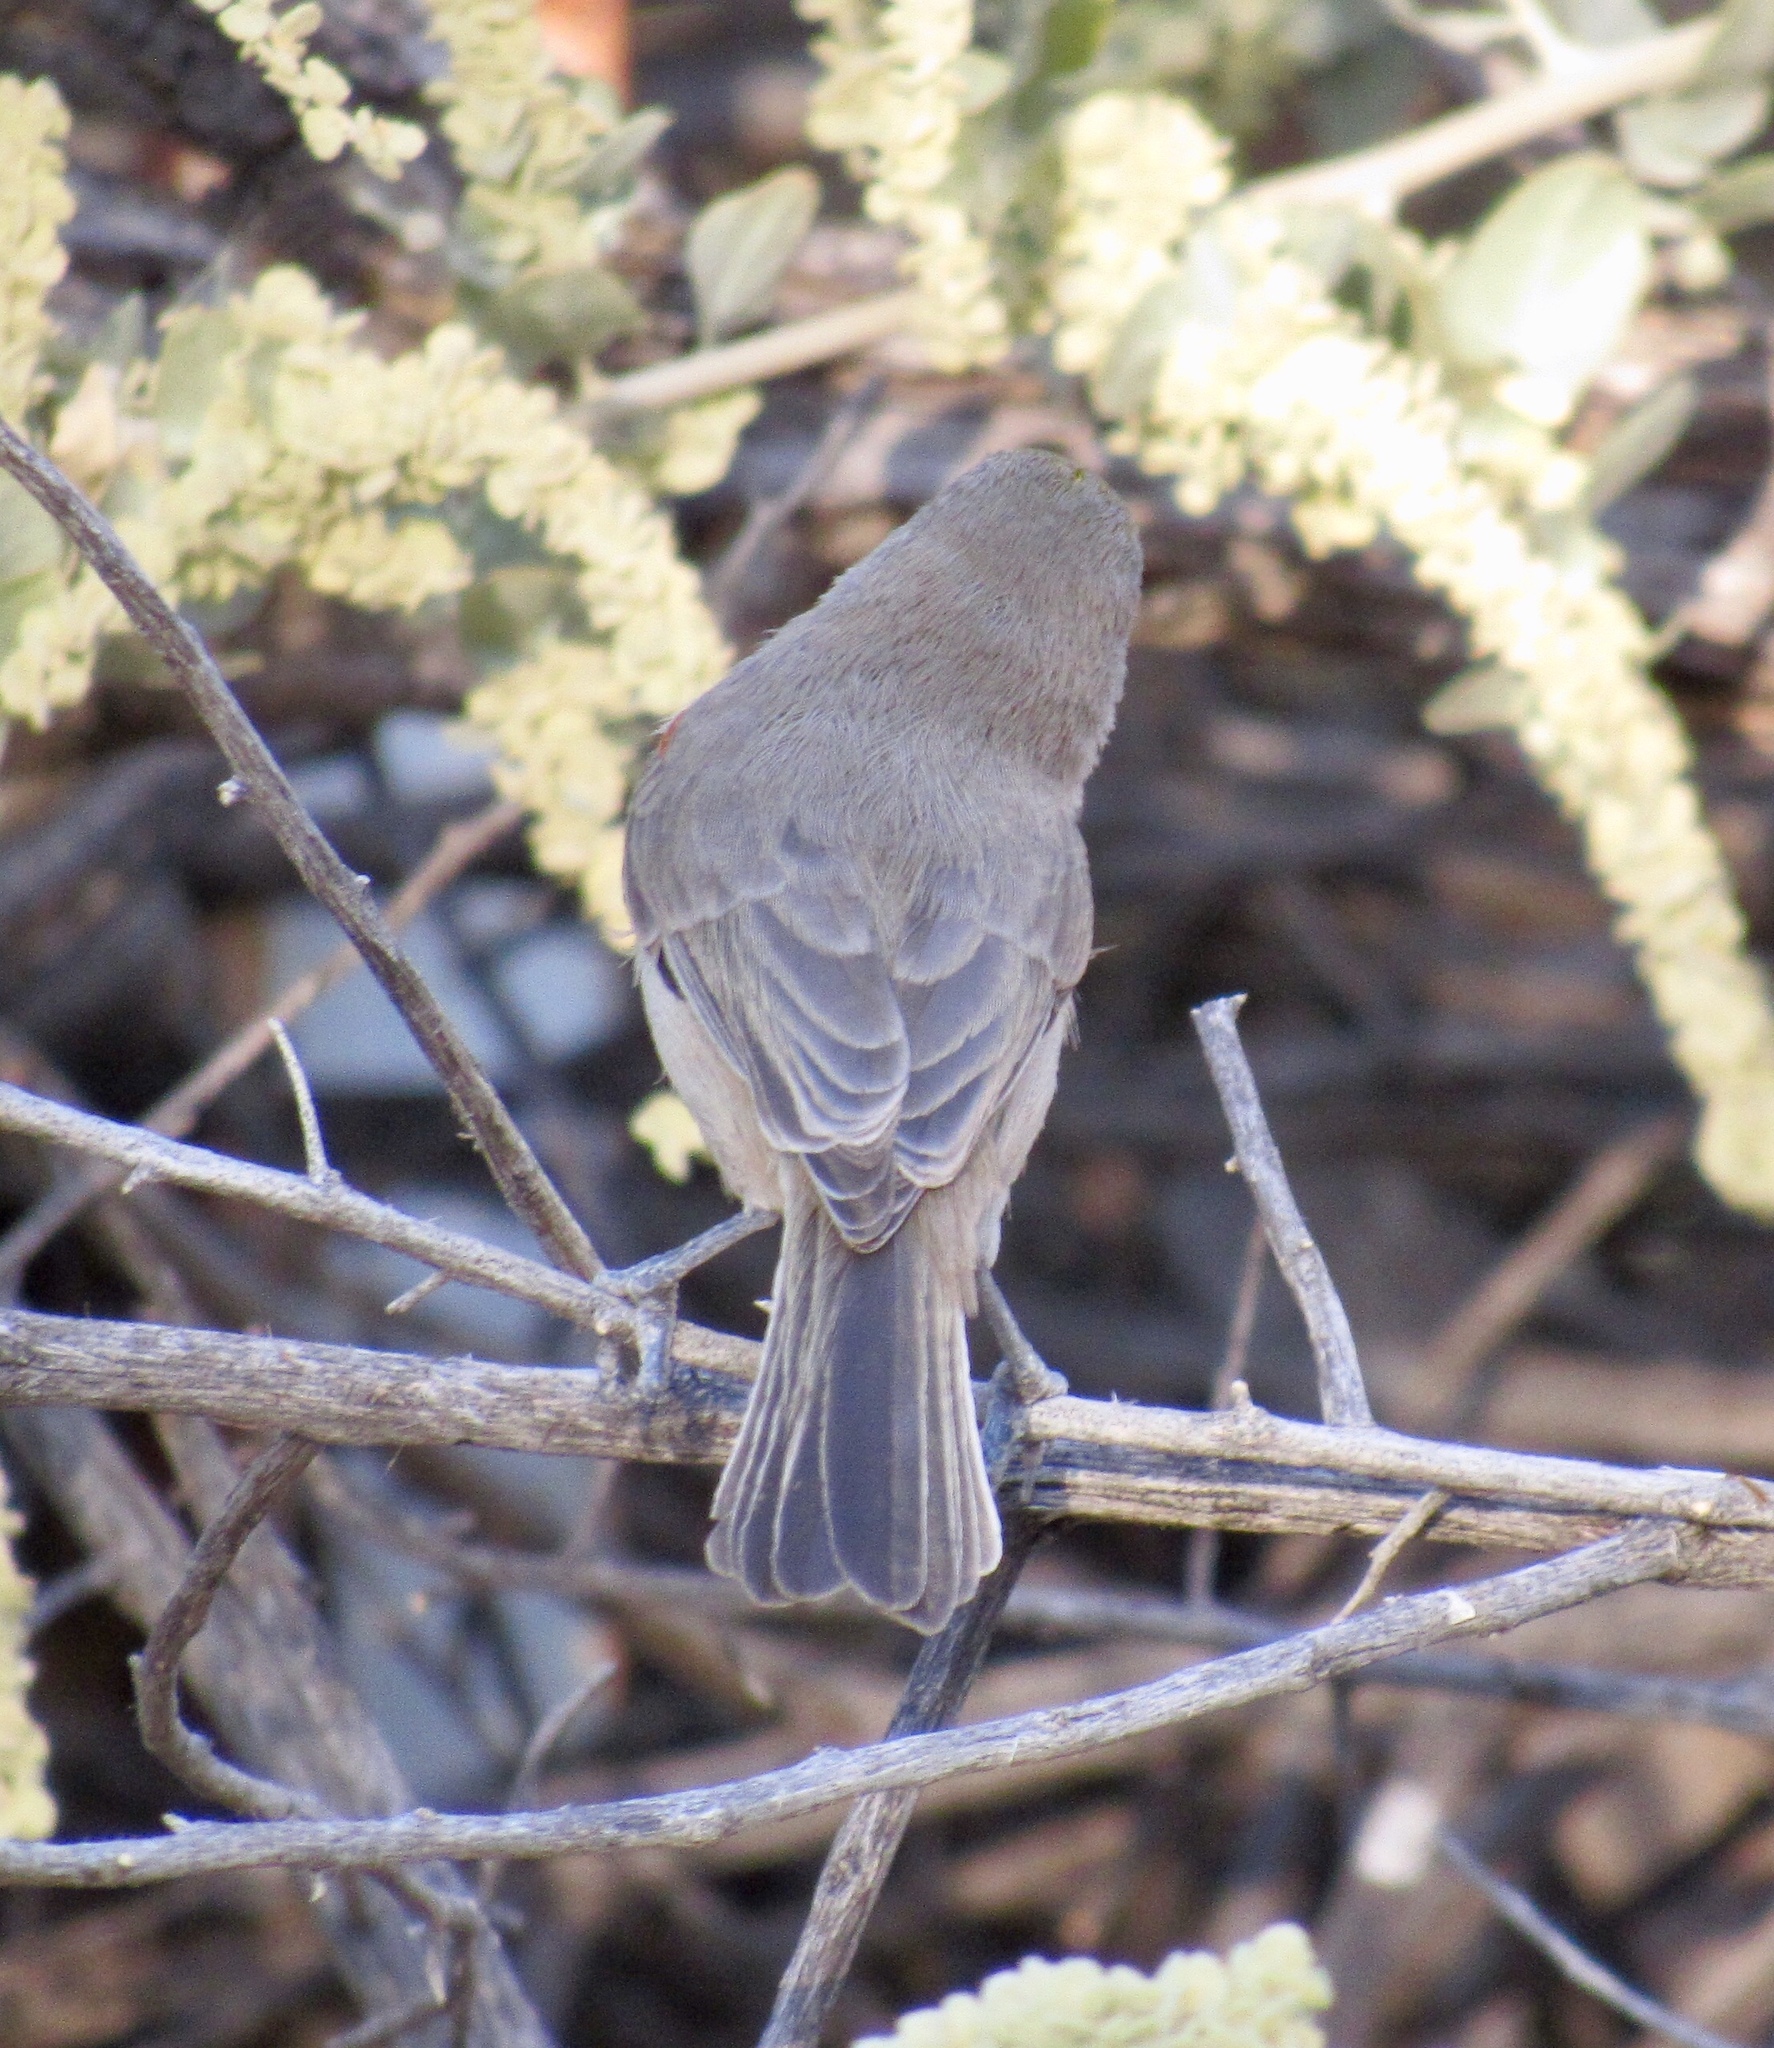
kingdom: Animalia
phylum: Chordata
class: Aves
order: Passeriformes
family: Remizidae
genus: Auriparus
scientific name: Auriparus flaviceps
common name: Verdin
